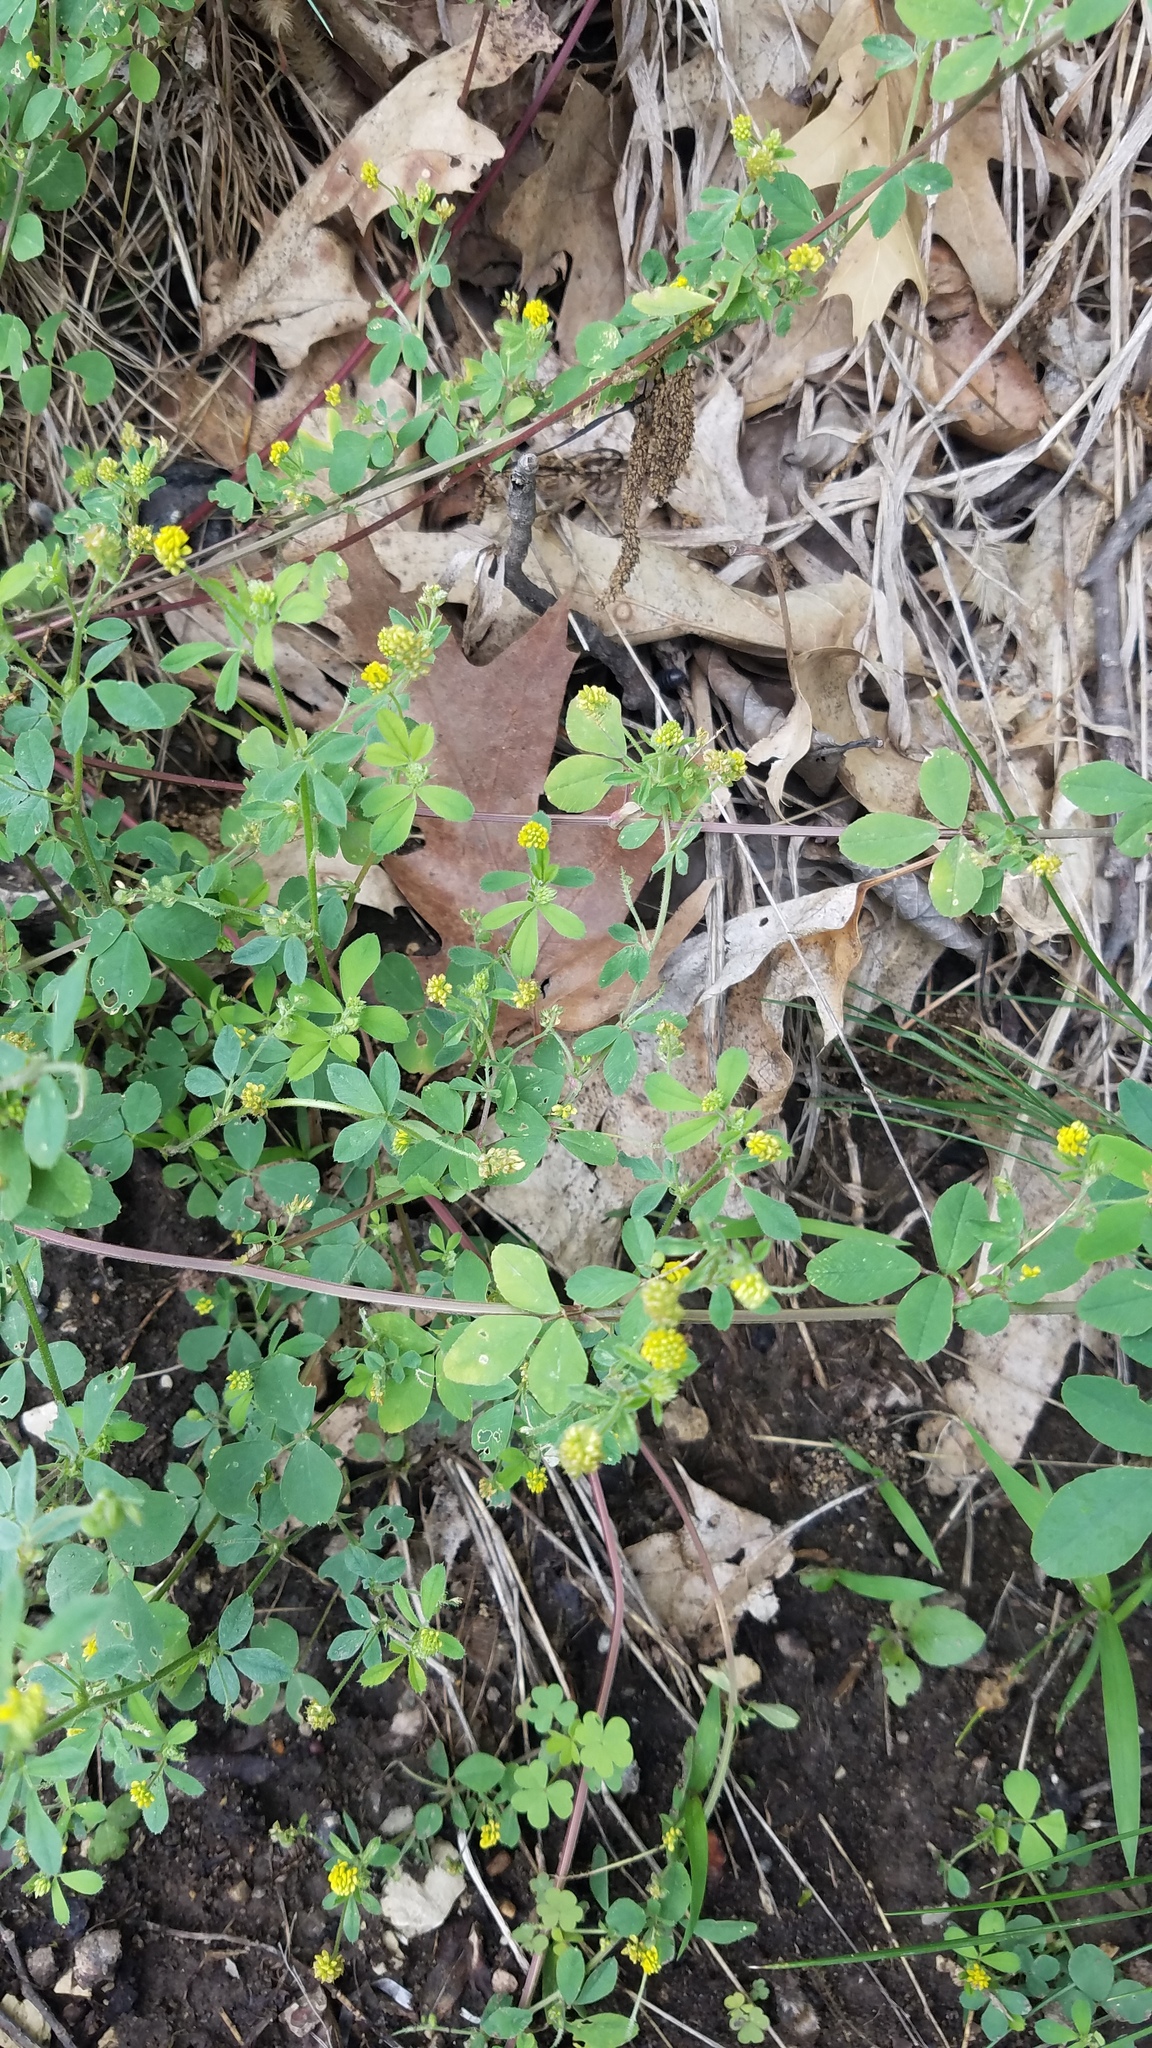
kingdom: Plantae
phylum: Tracheophyta
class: Magnoliopsida
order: Fabales
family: Fabaceae
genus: Medicago
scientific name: Medicago lupulina
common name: Black medick
